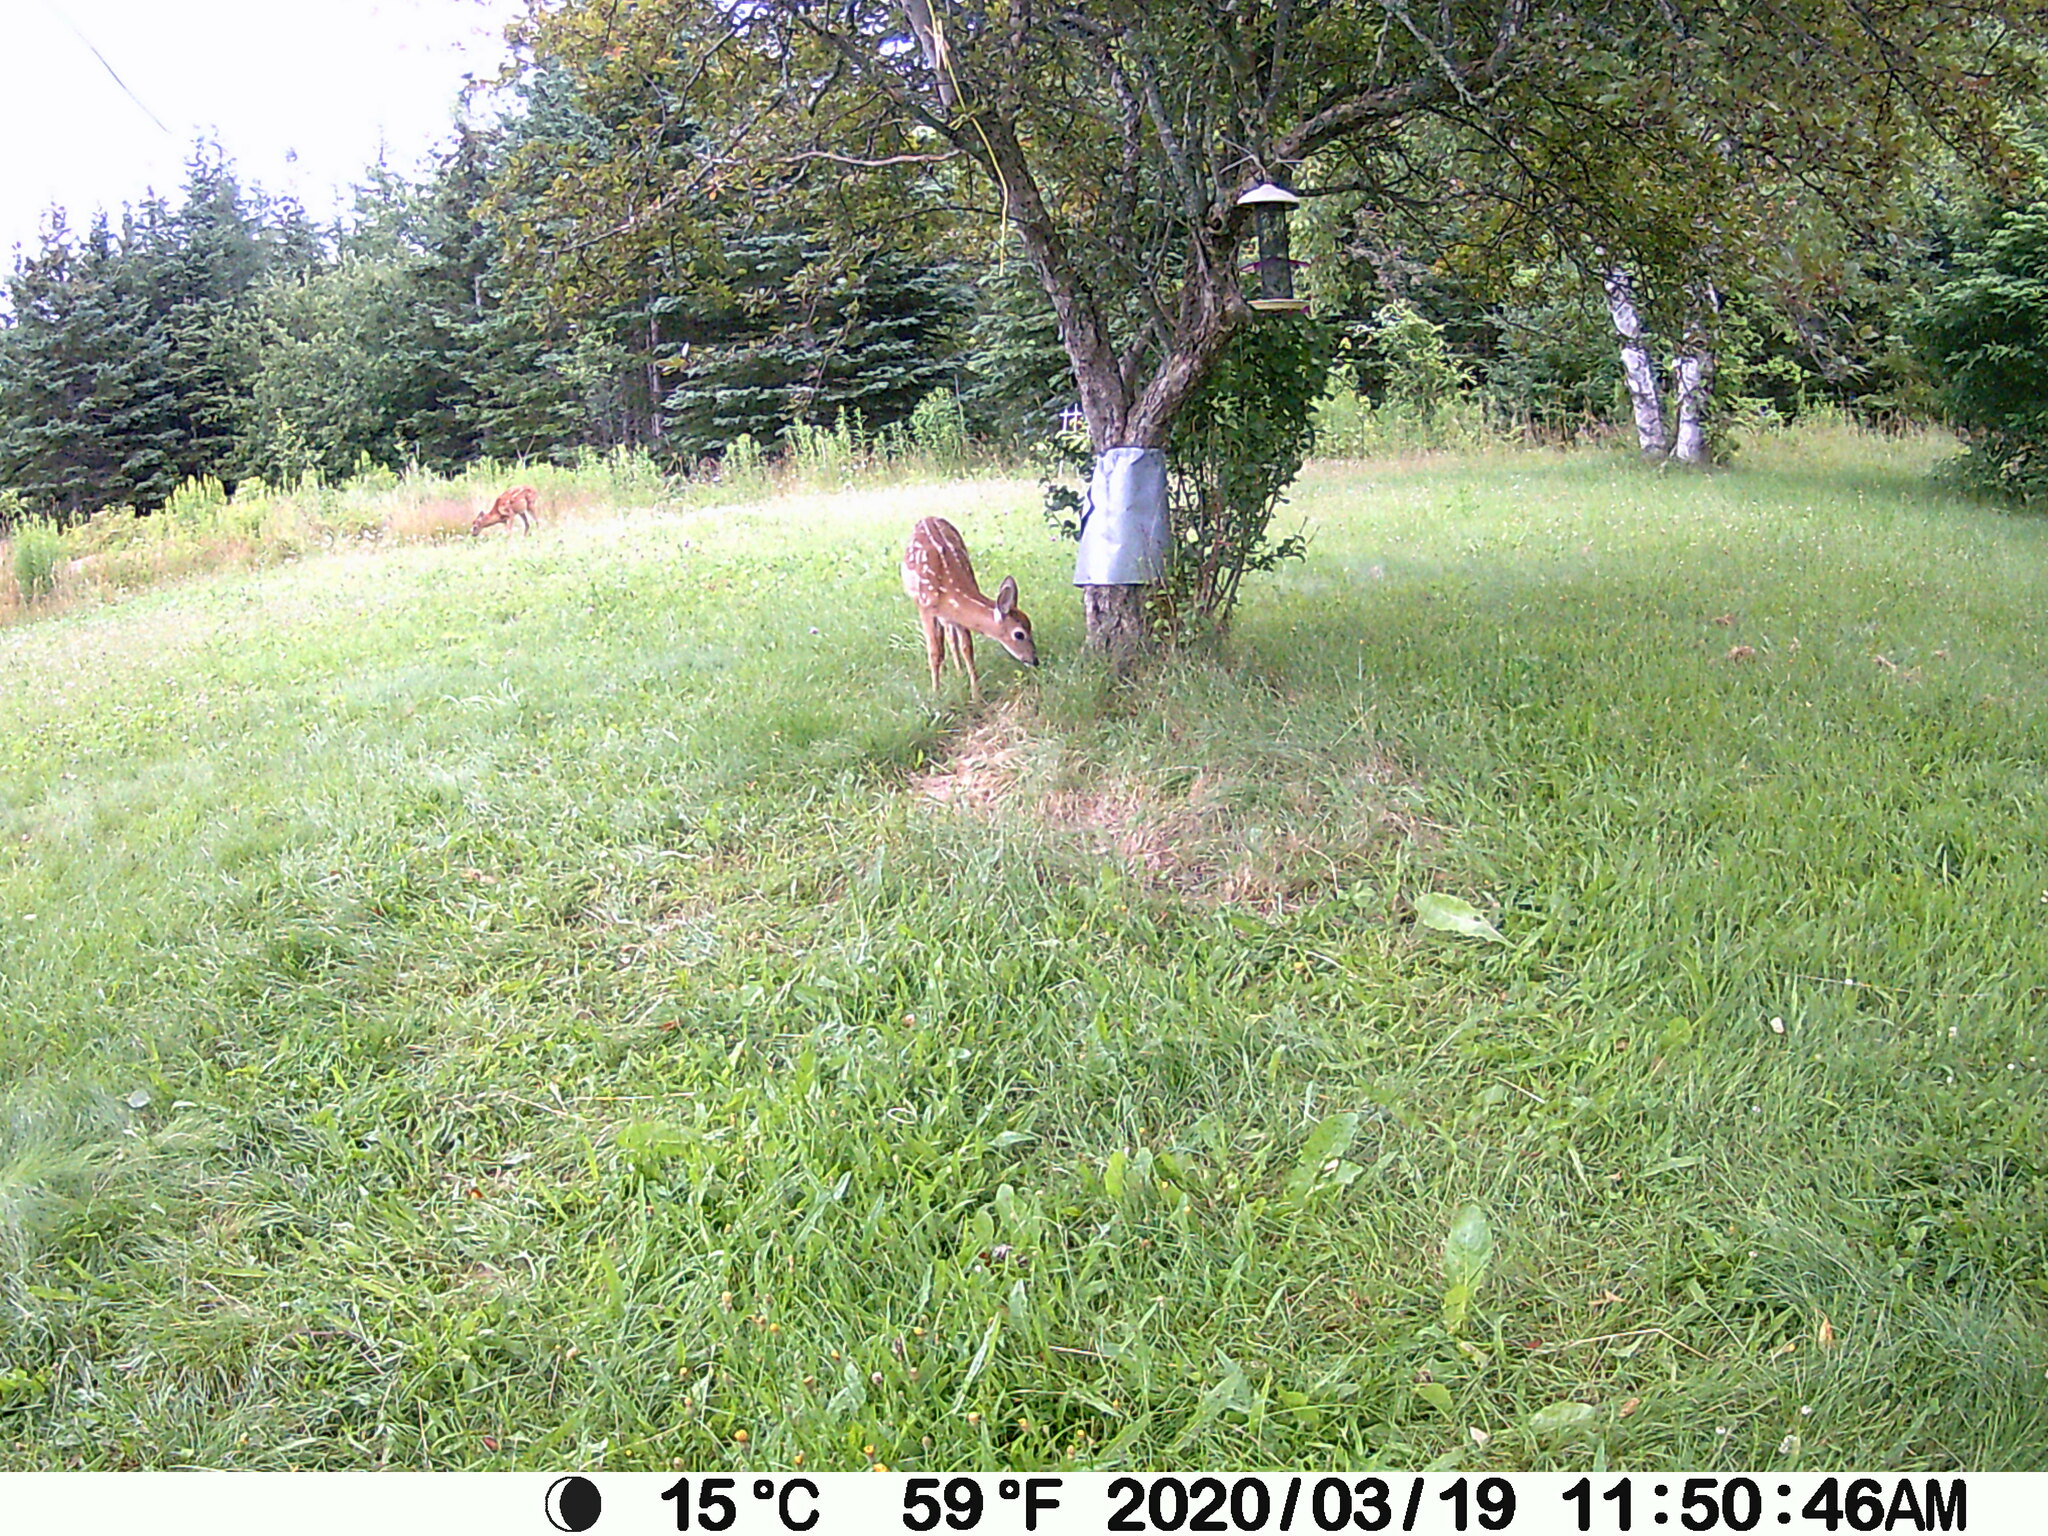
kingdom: Animalia
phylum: Chordata
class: Mammalia
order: Artiodactyla
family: Cervidae
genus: Odocoileus
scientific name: Odocoileus virginianus
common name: White-tailed deer
